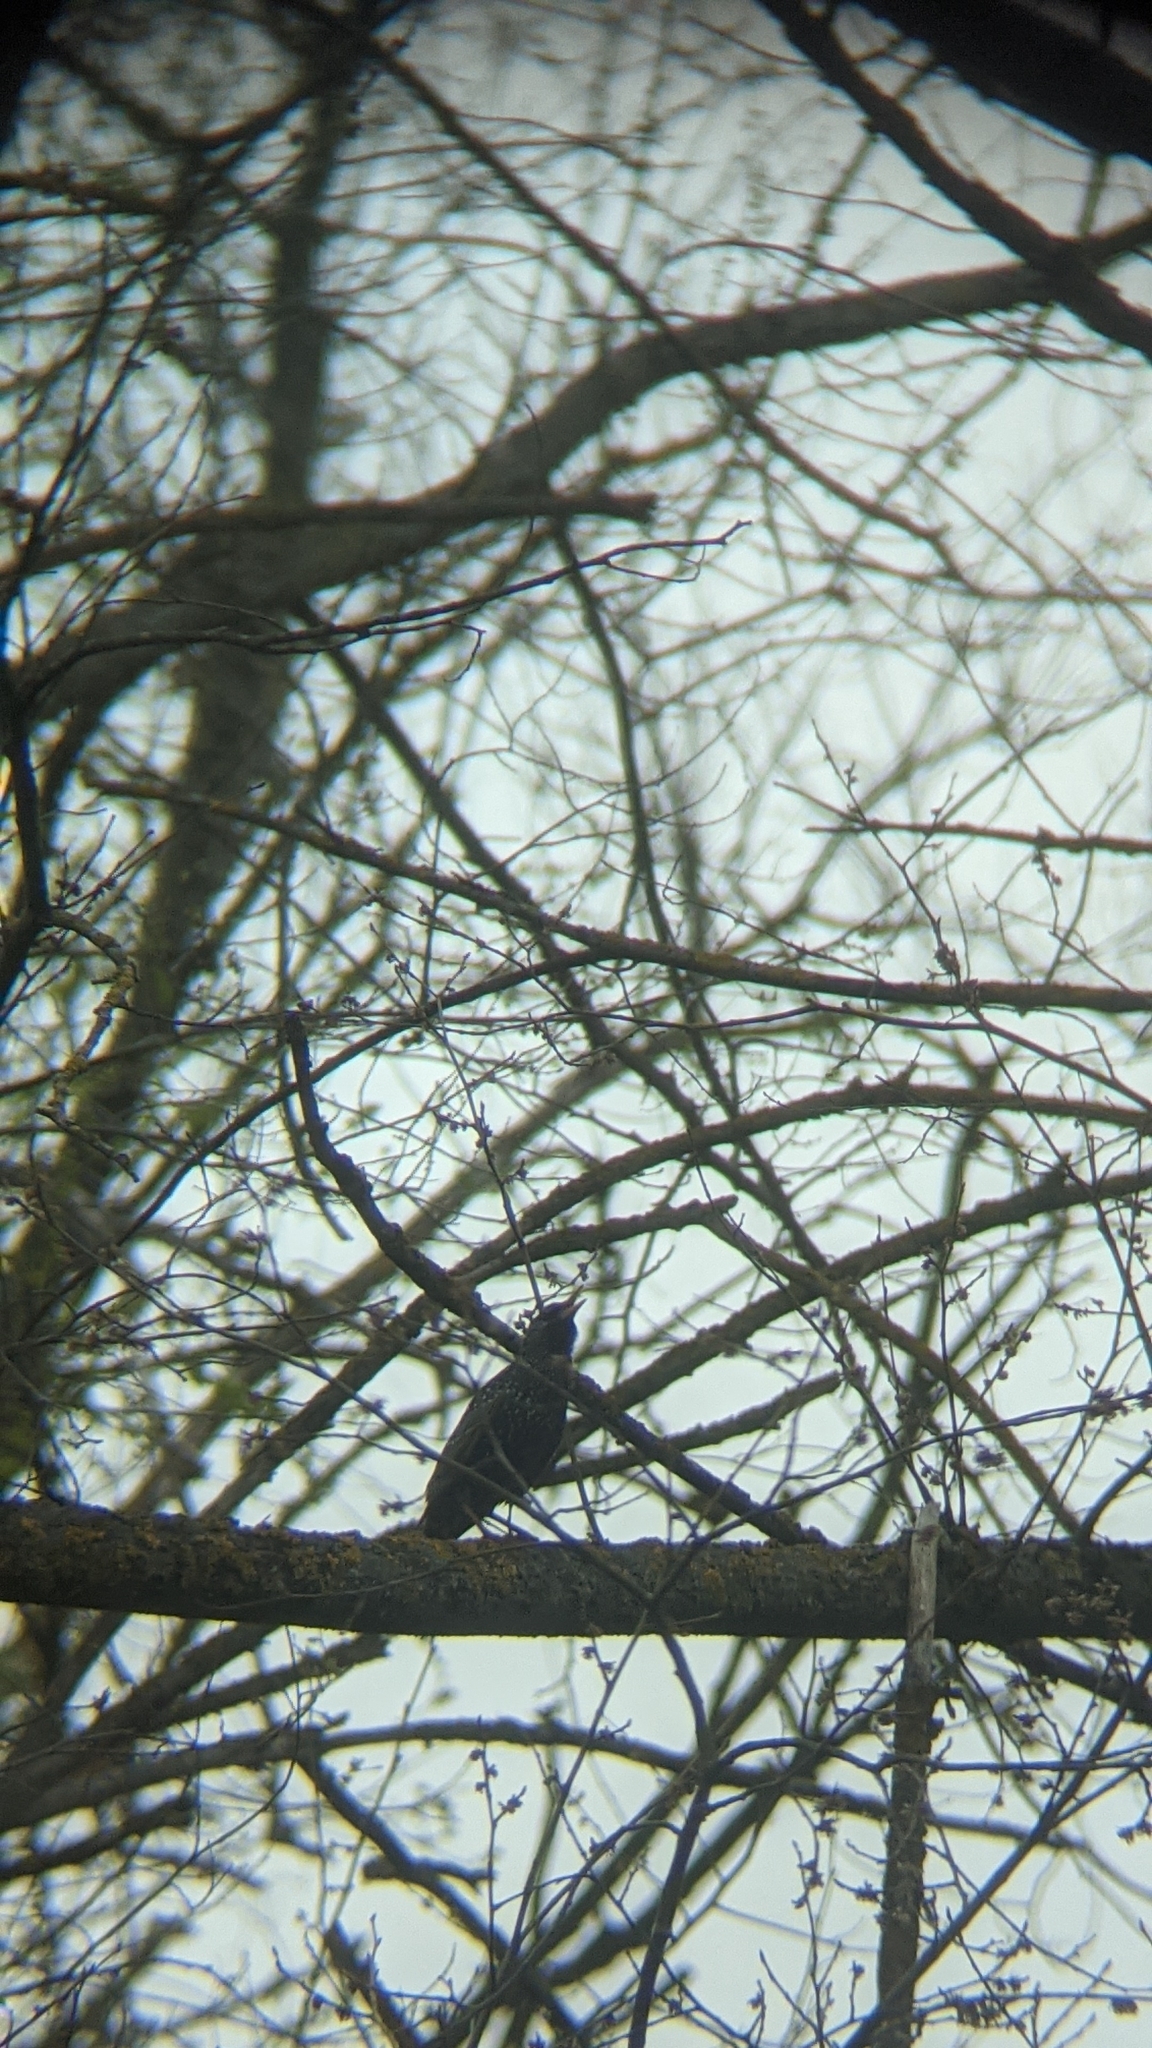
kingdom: Animalia
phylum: Chordata
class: Aves
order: Passeriformes
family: Sturnidae
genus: Sturnus
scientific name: Sturnus vulgaris
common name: Common starling
